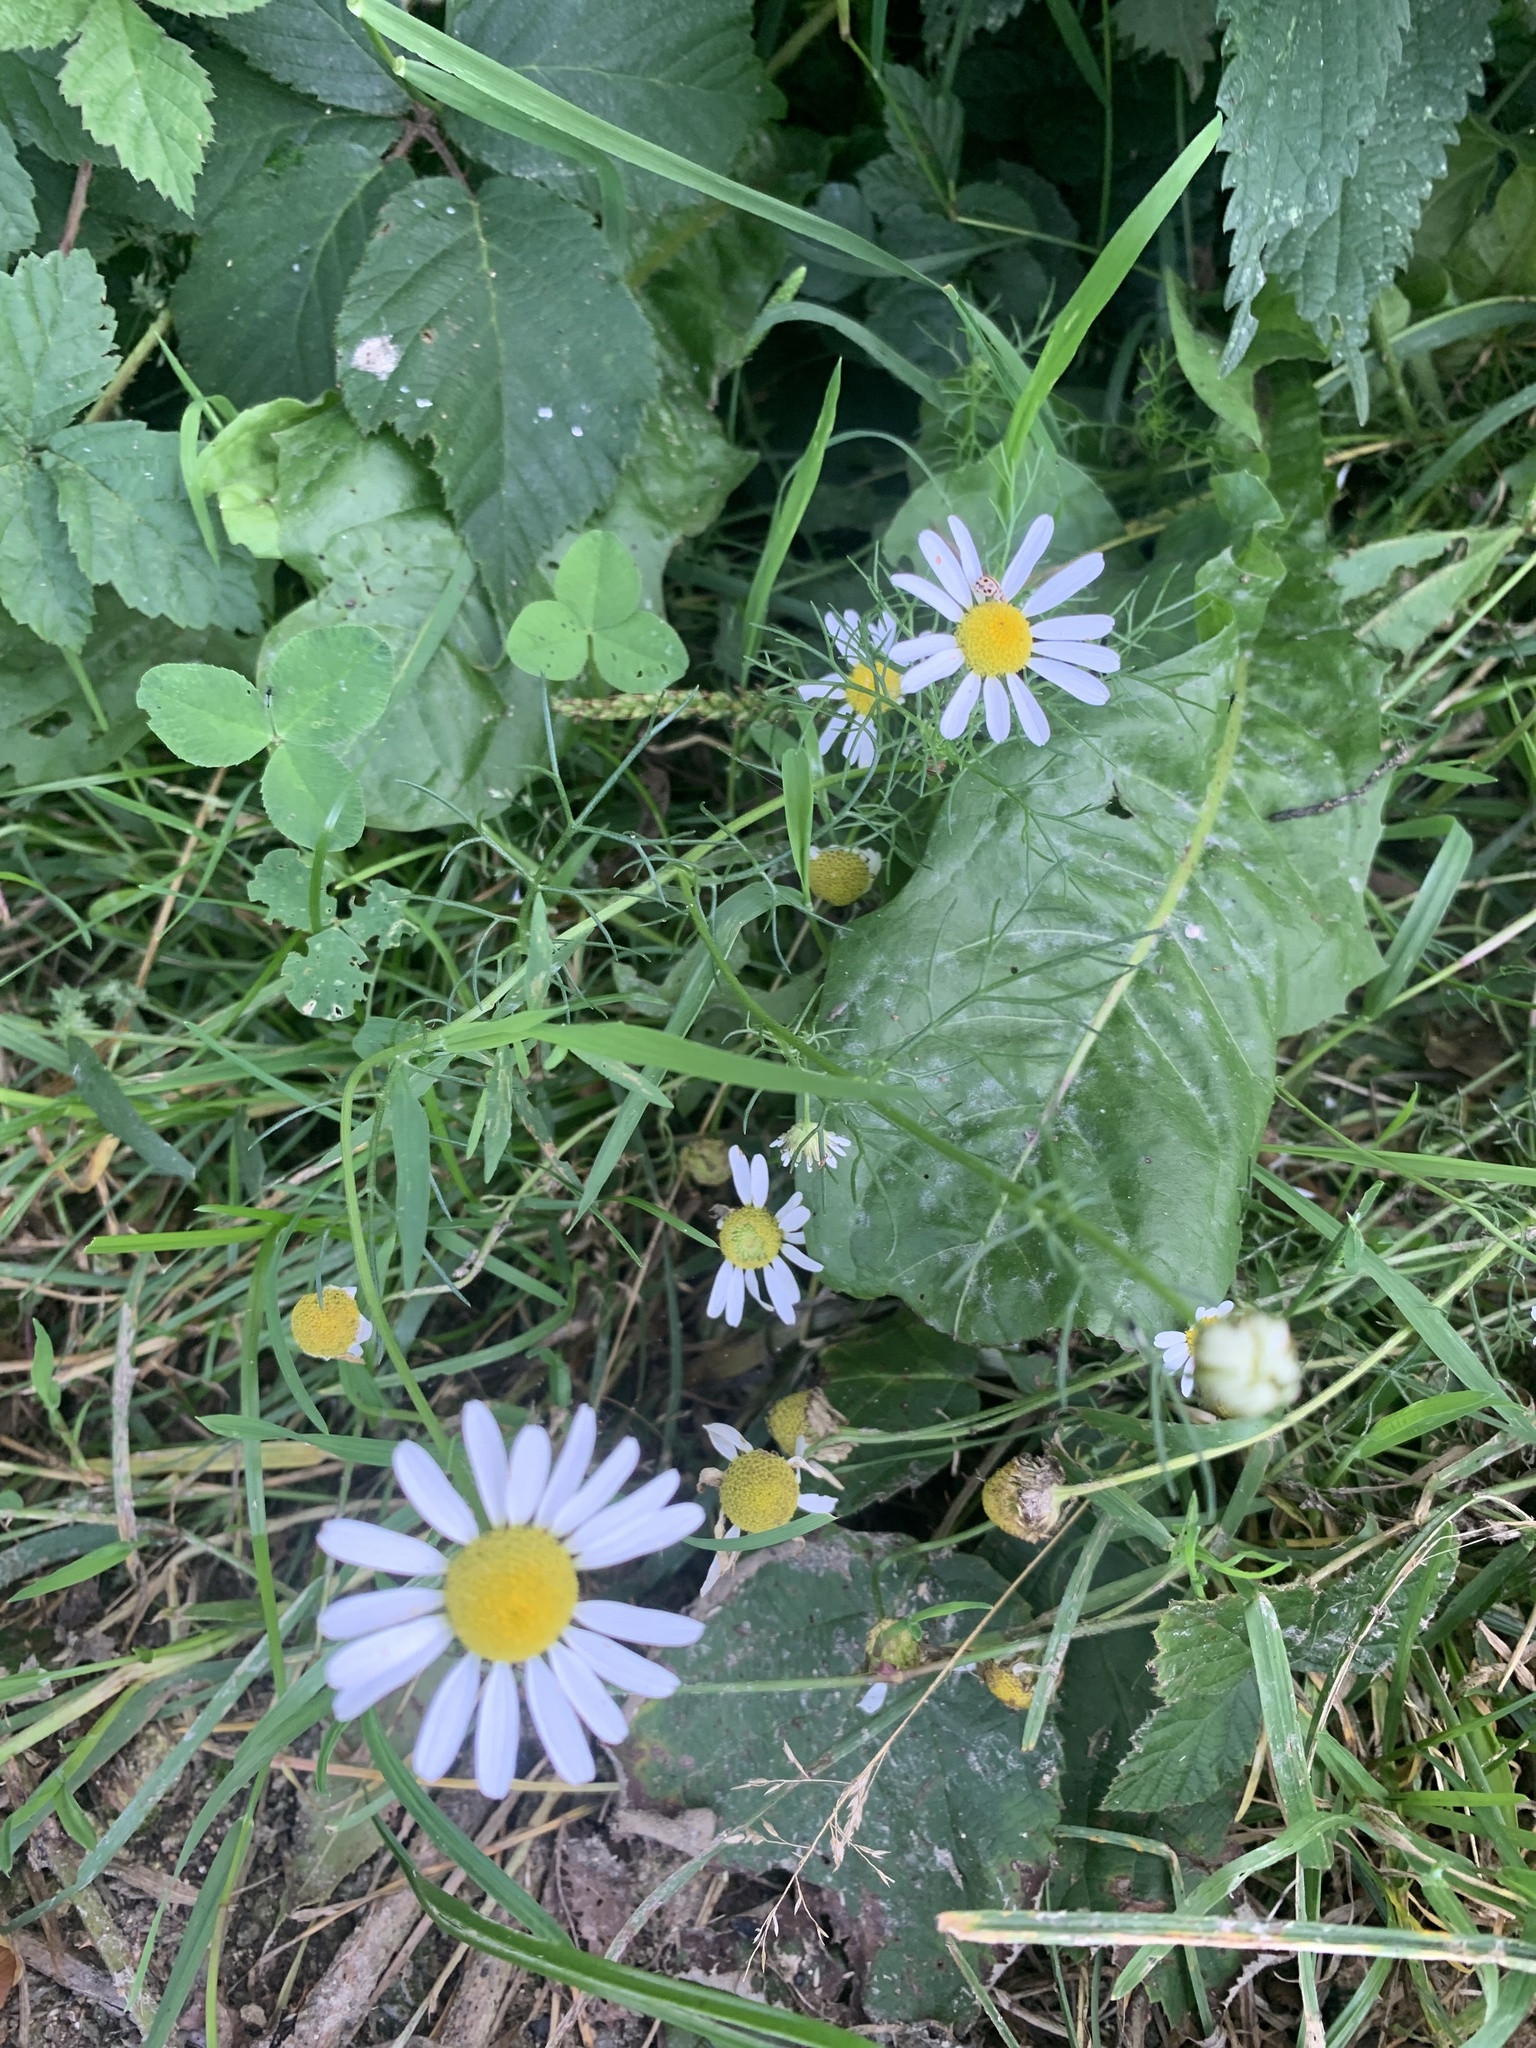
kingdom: Plantae
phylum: Tracheophyta
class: Magnoliopsida
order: Asterales
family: Asteraceae
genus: Tripleurospermum
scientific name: Tripleurospermum inodorum
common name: Scentless mayweed
